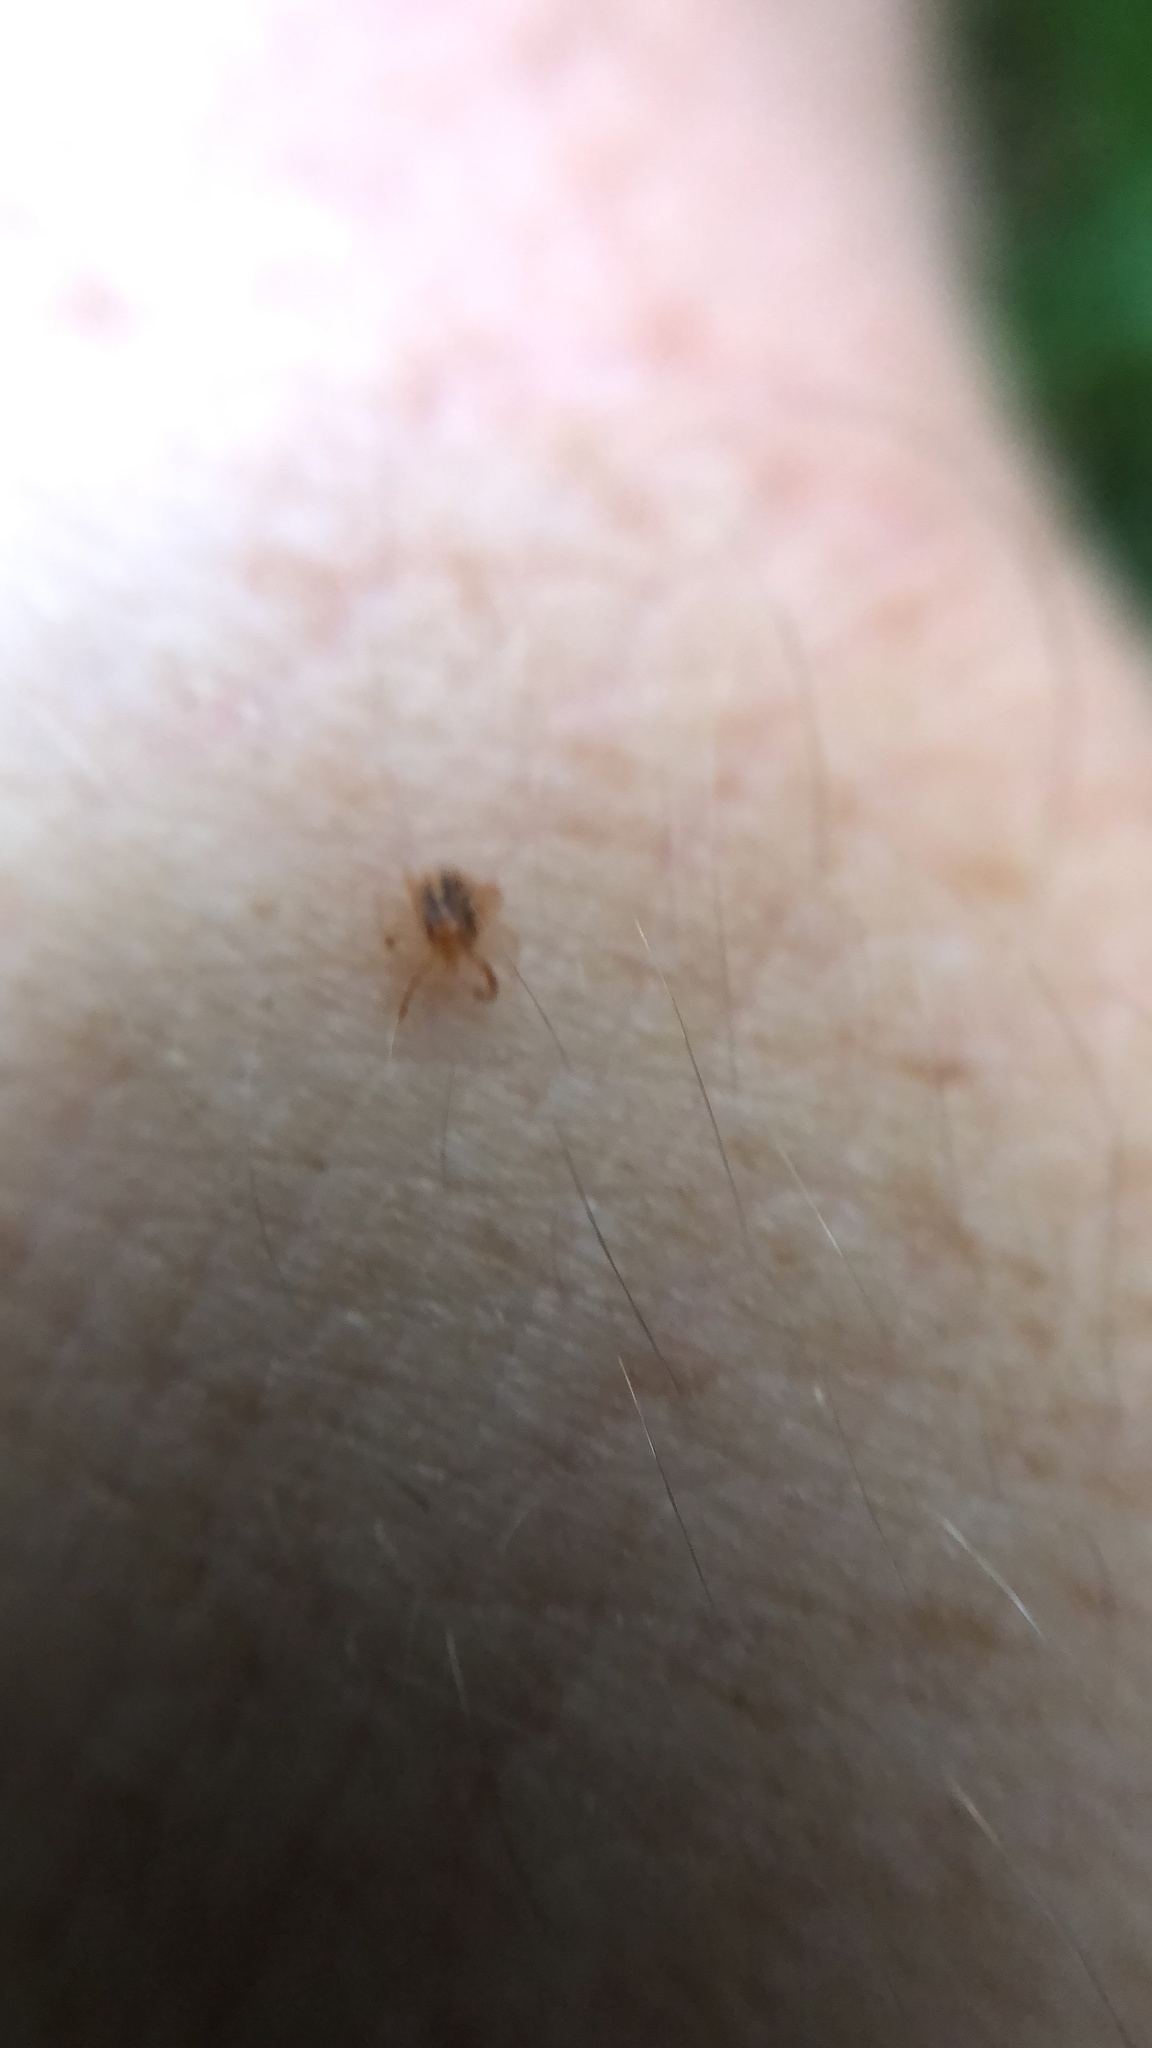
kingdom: Animalia
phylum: Arthropoda
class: Arachnida
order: Ixodida
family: Ixodidae
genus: Amblyomma
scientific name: Amblyomma americanum
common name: Lone star tick
